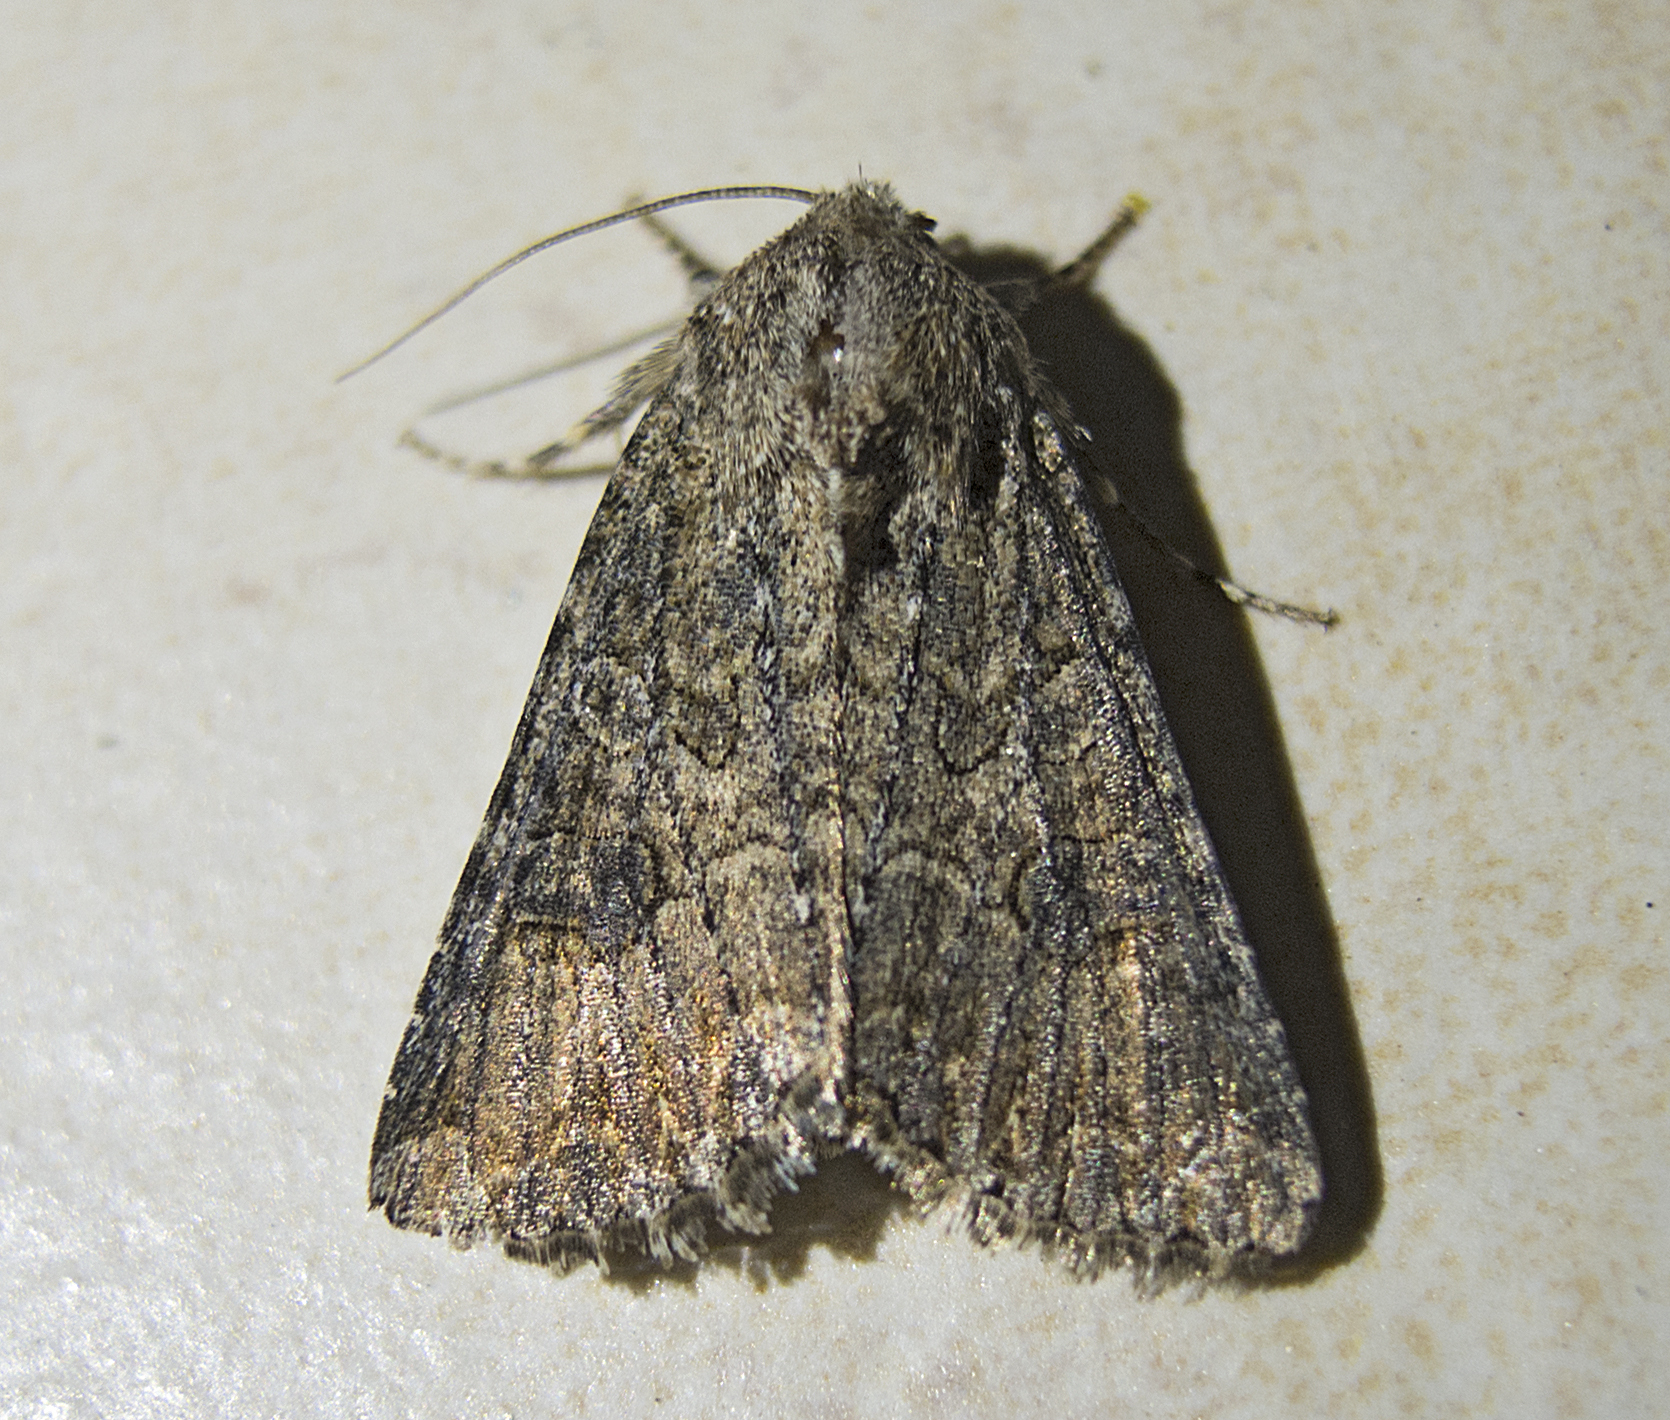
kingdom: Animalia
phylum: Arthropoda
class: Insecta
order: Lepidoptera
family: Noctuidae
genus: Anarta
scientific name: Anarta trifolii
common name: Clover cutworm moth
